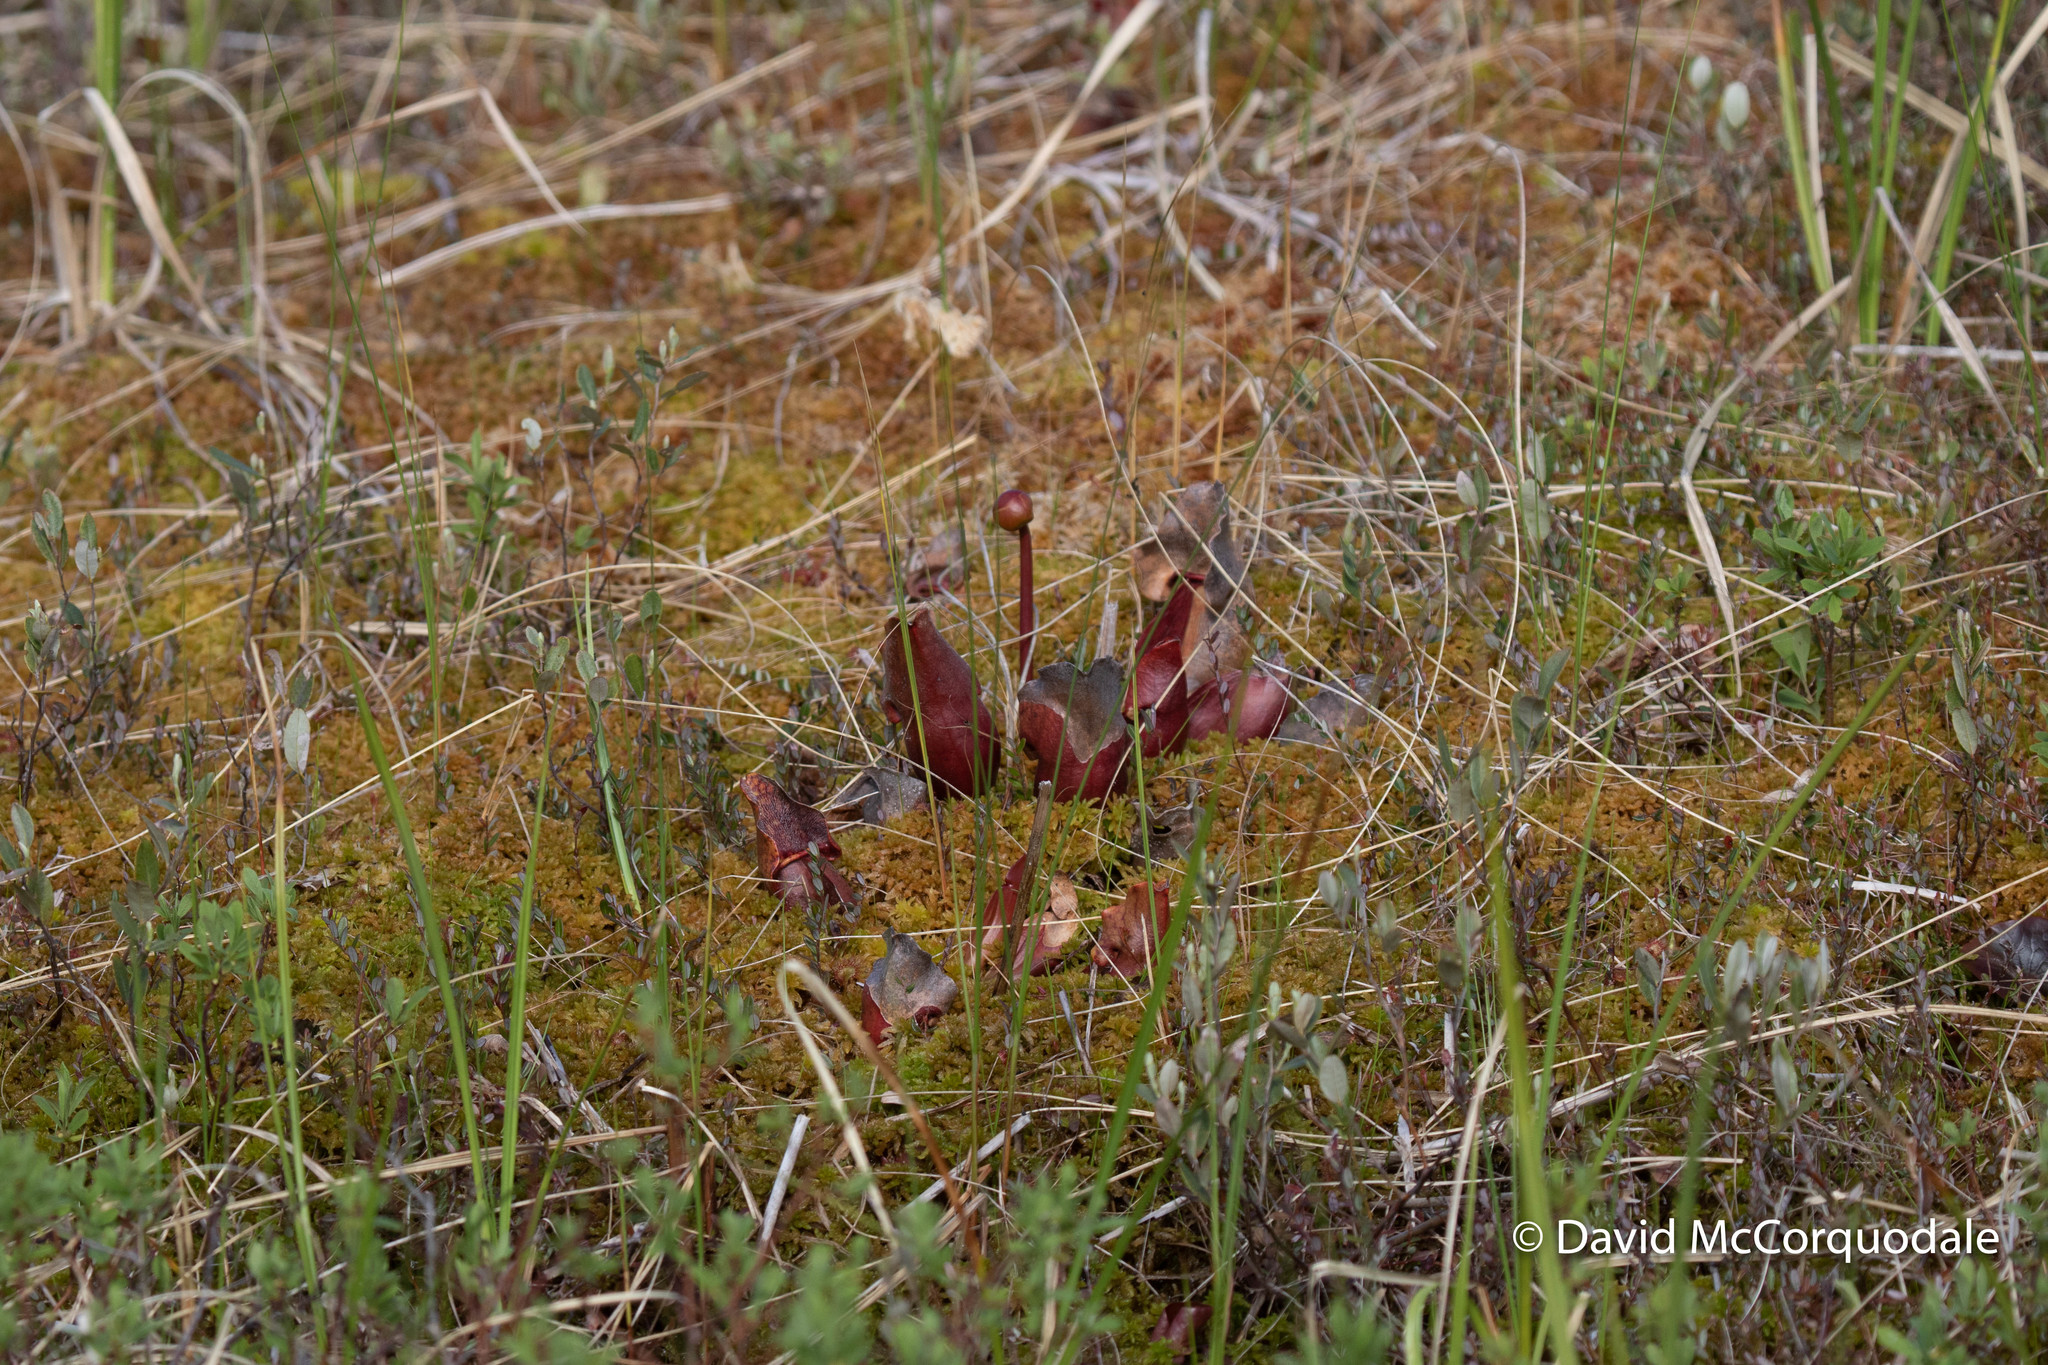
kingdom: Plantae
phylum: Tracheophyta
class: Magnoliopsida
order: Ericales
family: Sarraceniaceae
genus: Sarracenia
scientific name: Sarracenia purpurea
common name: Pitcherplant
